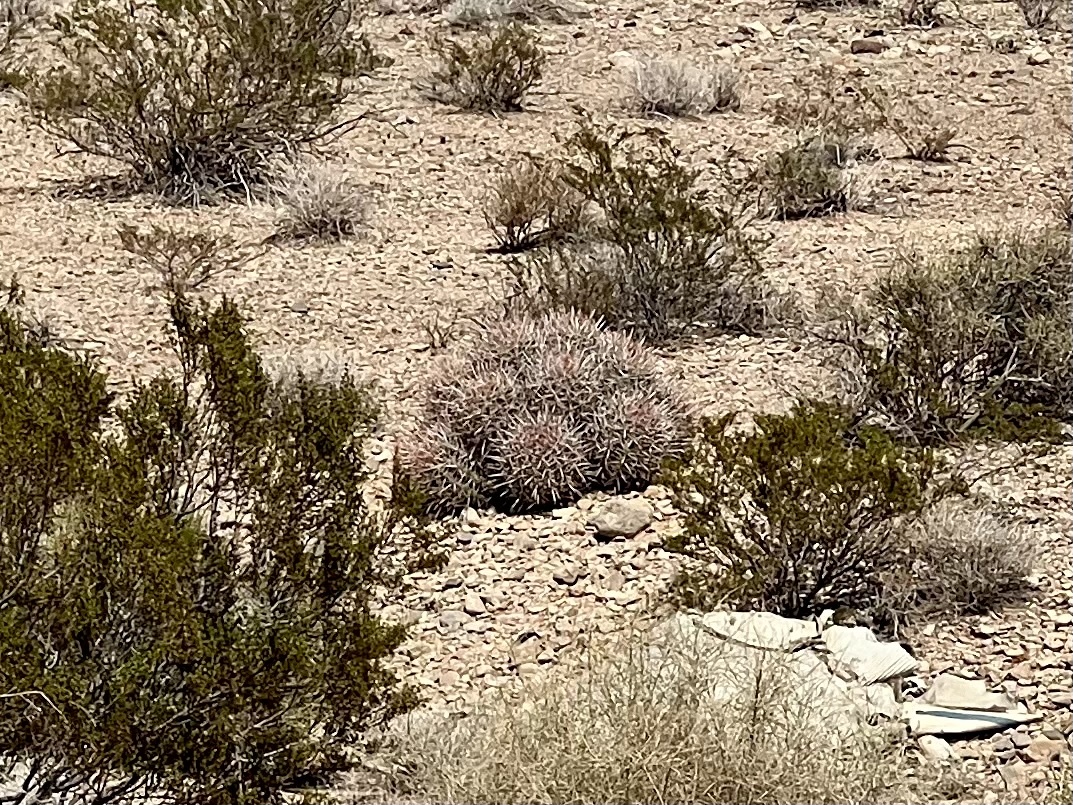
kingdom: Plantae
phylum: Tracheophyta
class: Magnoliopsida
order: Caryophyllales
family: Cactaceae
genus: Echinocactus
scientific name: Echinocactus polycephalus
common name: Cottontop cactus
